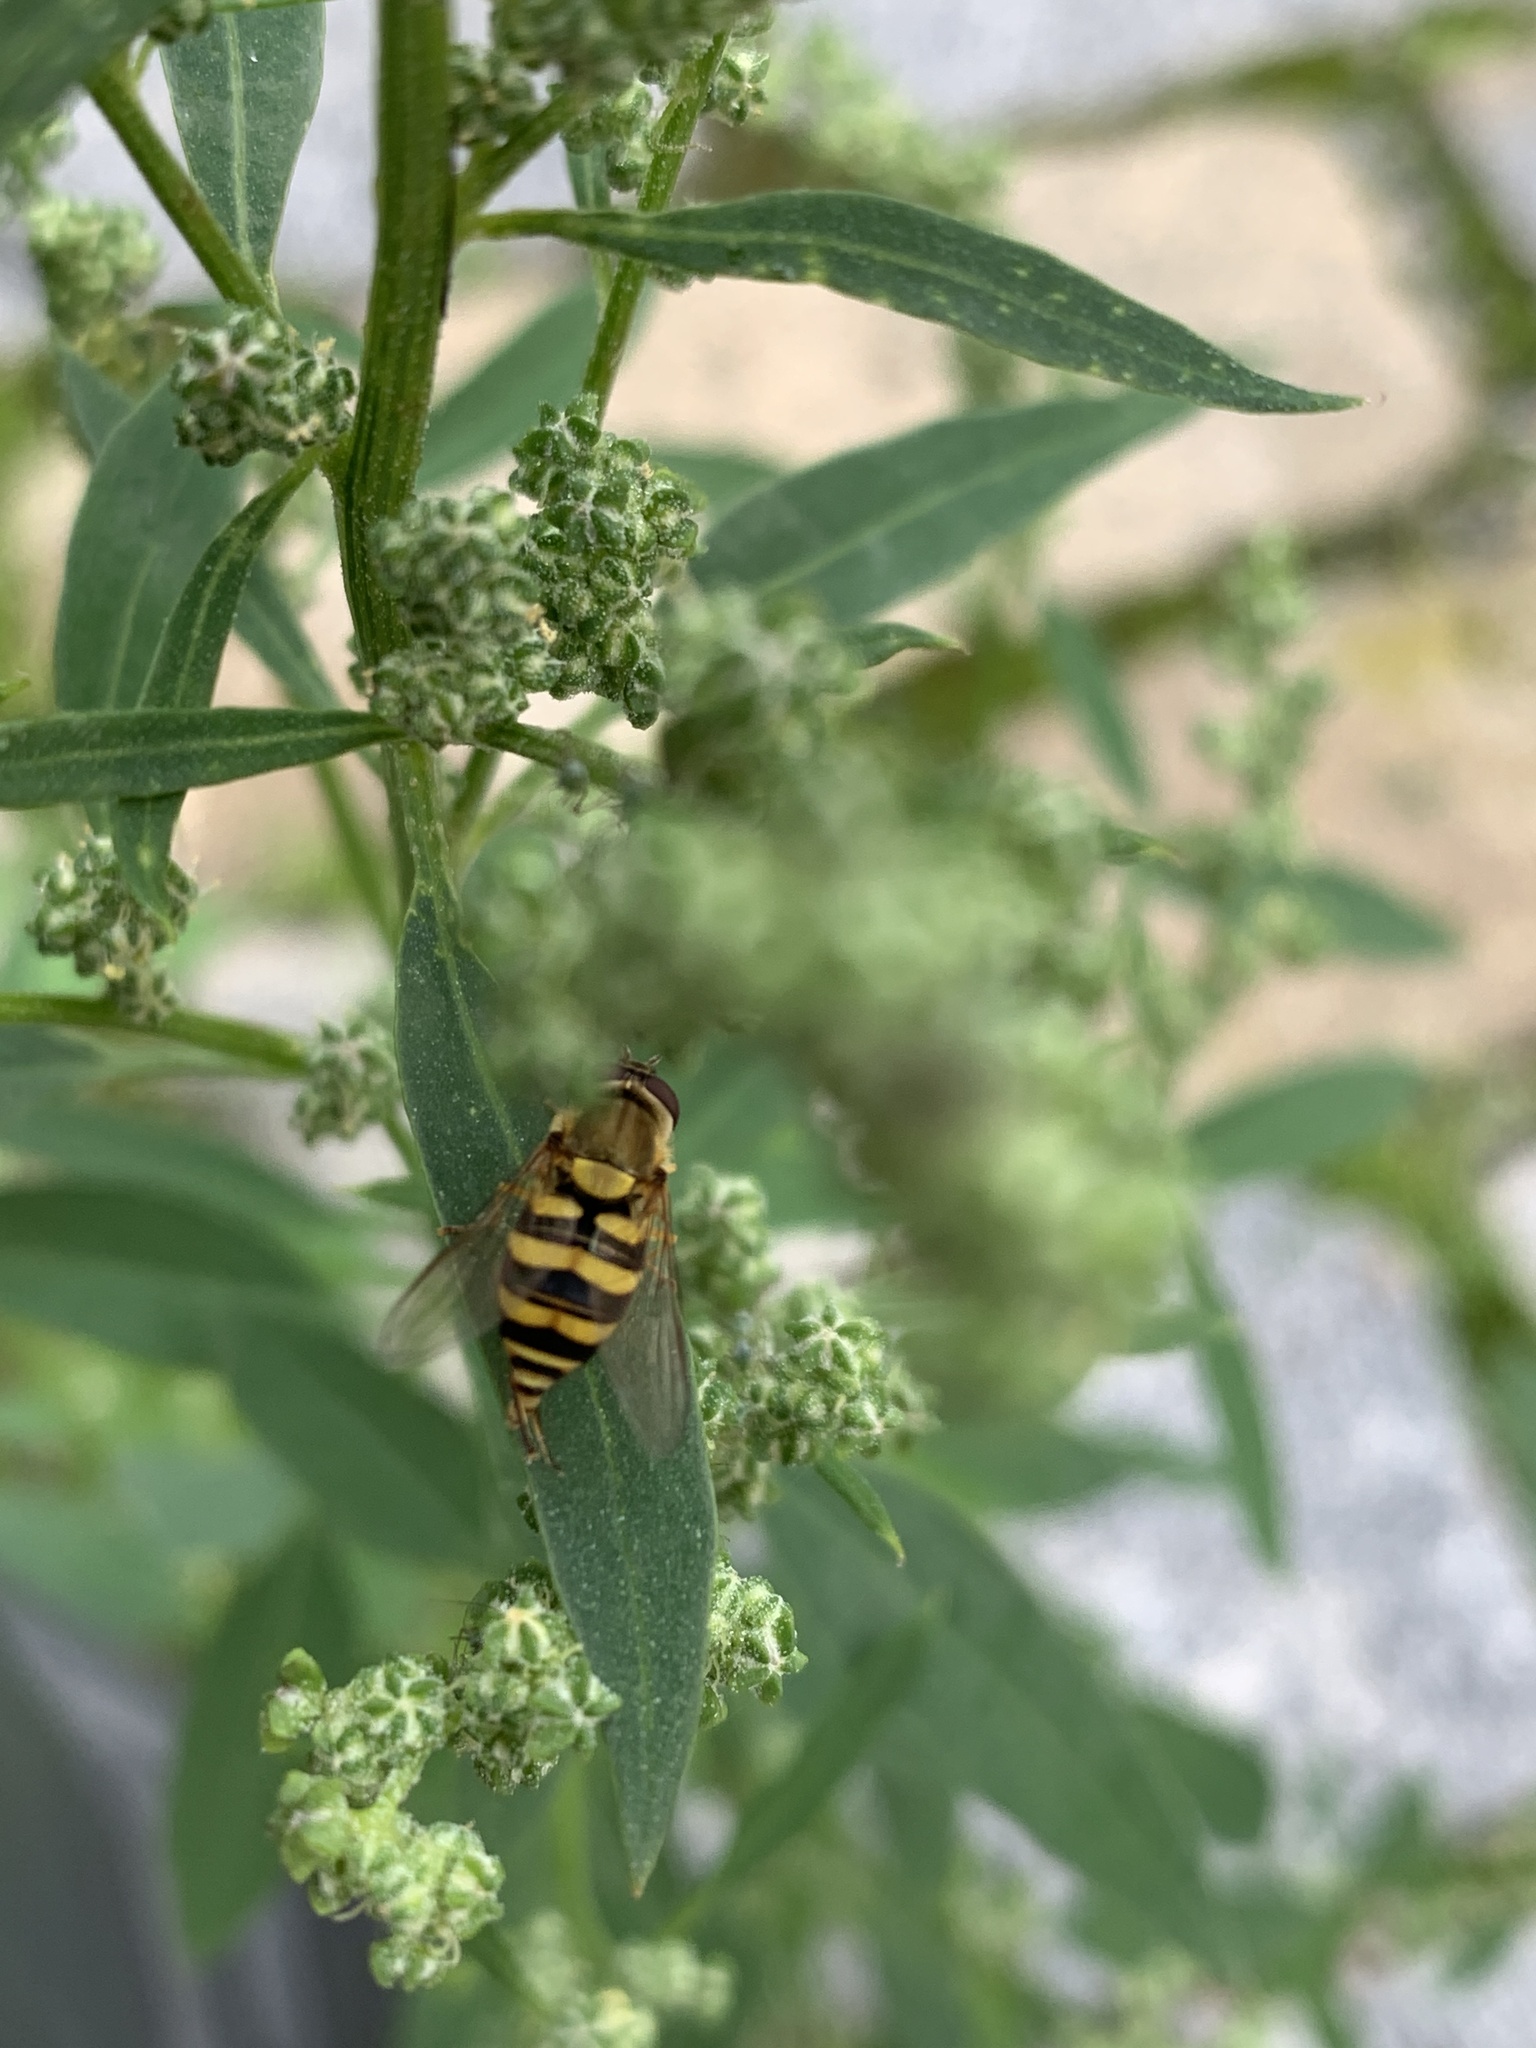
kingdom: Animalia
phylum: Arthropoda
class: Insecta
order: Diptera
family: Syrphidae
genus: Syrphus
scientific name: Syrphus
